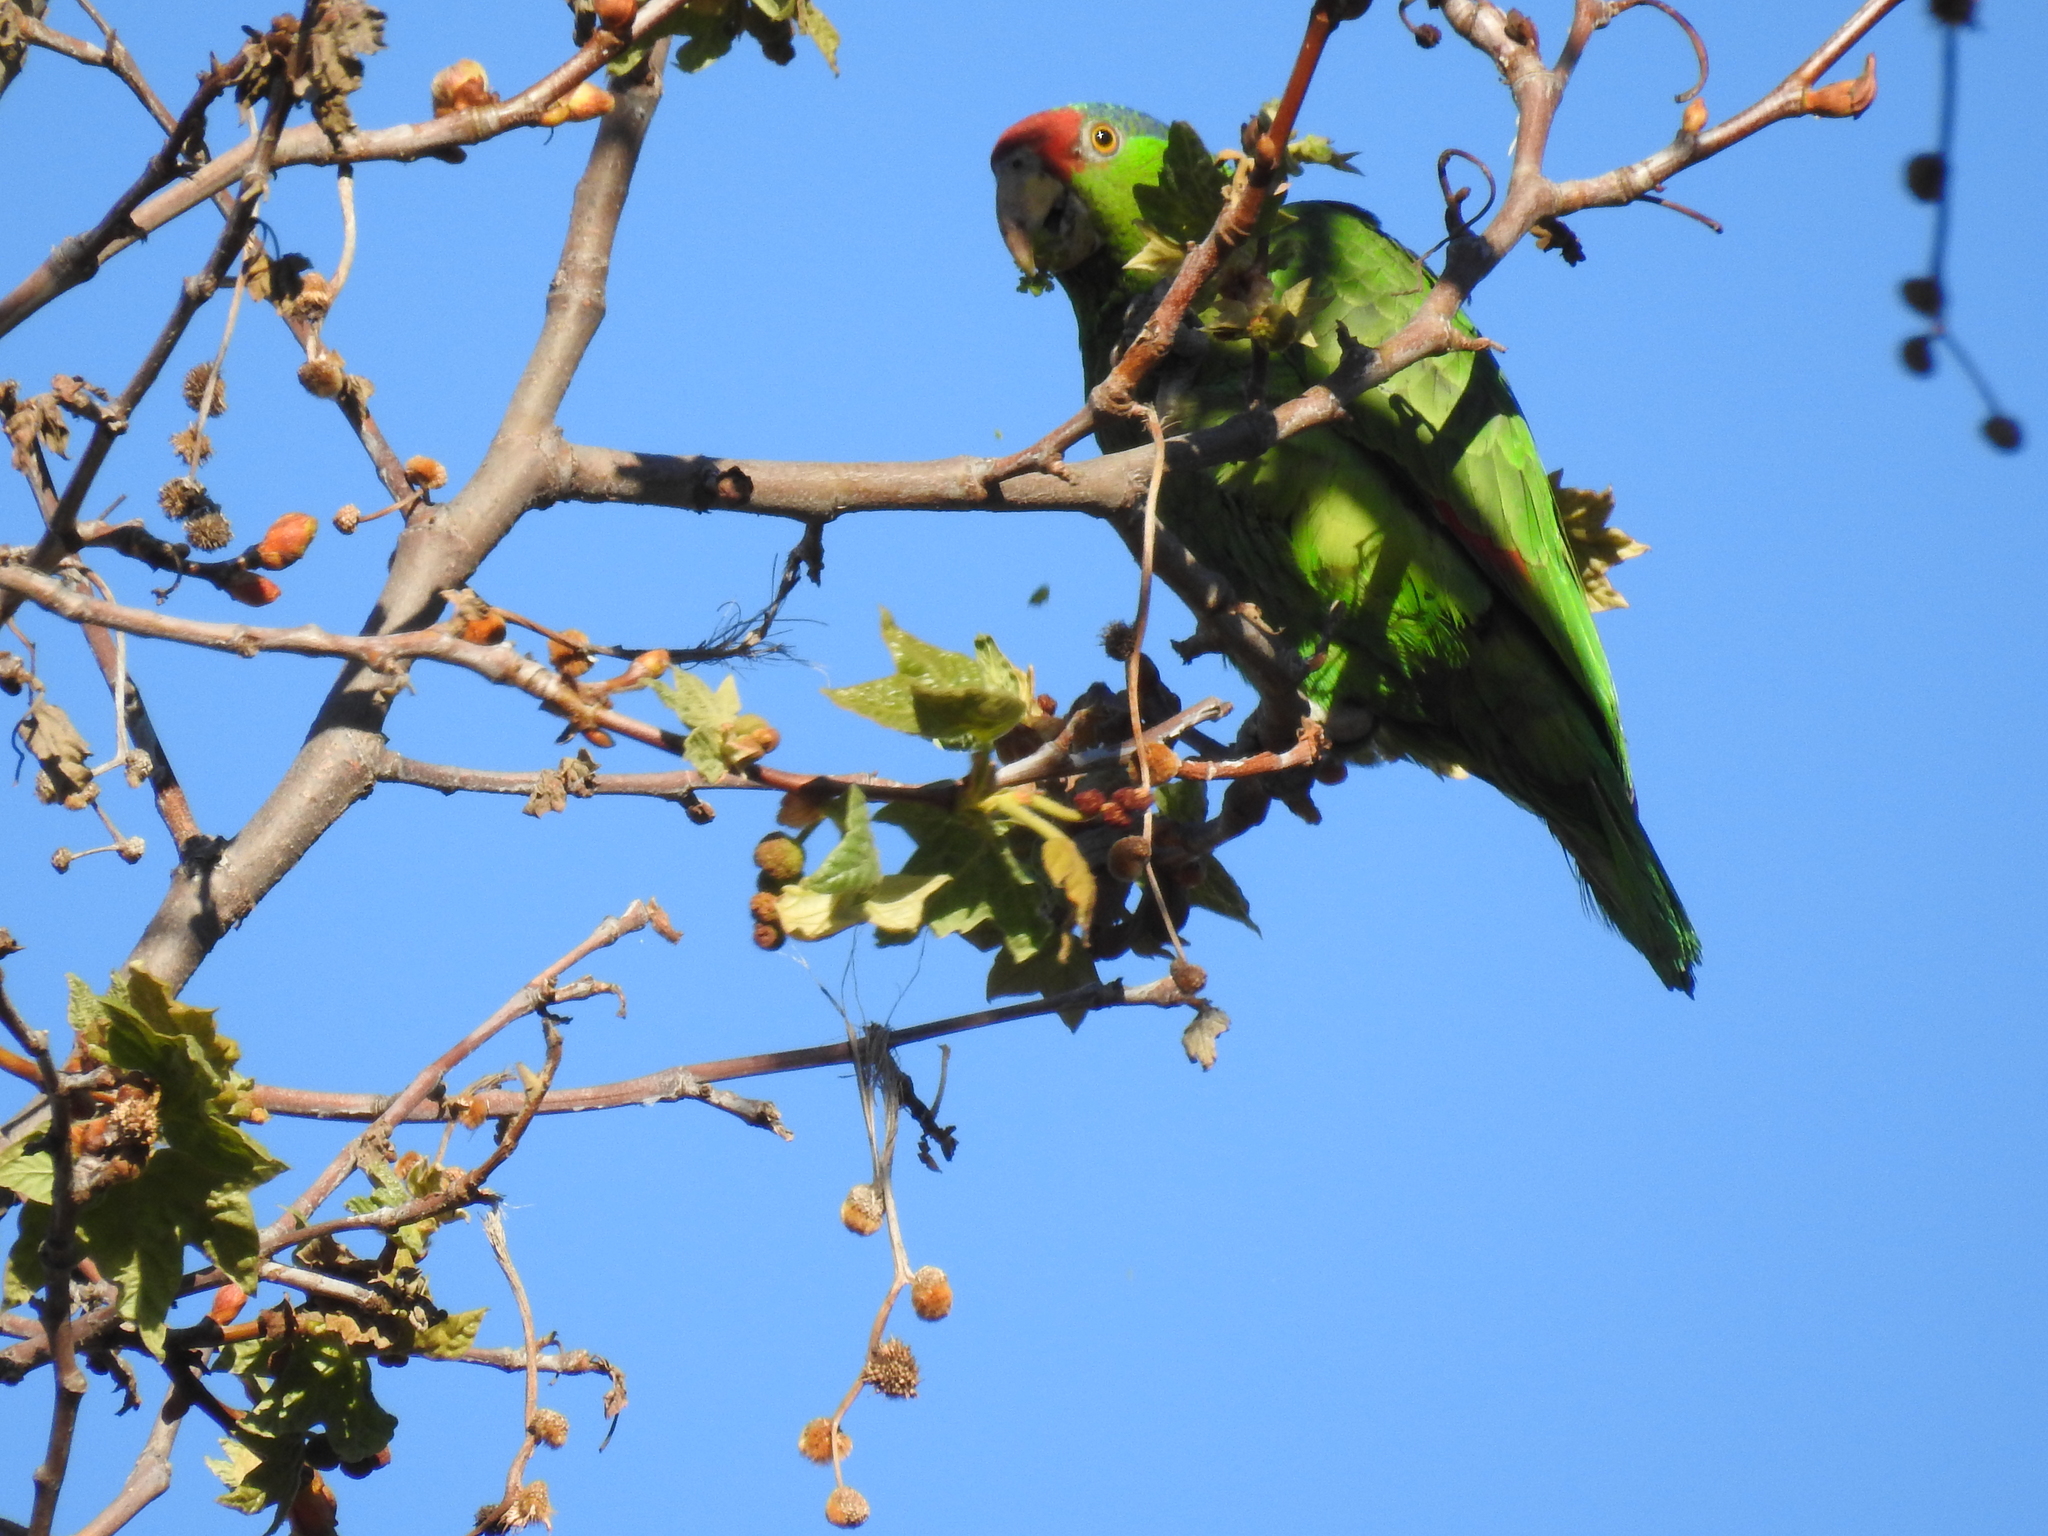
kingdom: Animalia
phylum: Chordata
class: Aves
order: Psittaciformes
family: Psittacidae
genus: Amazona
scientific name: Amazona viridigenalis
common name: Red-crowned amazon
